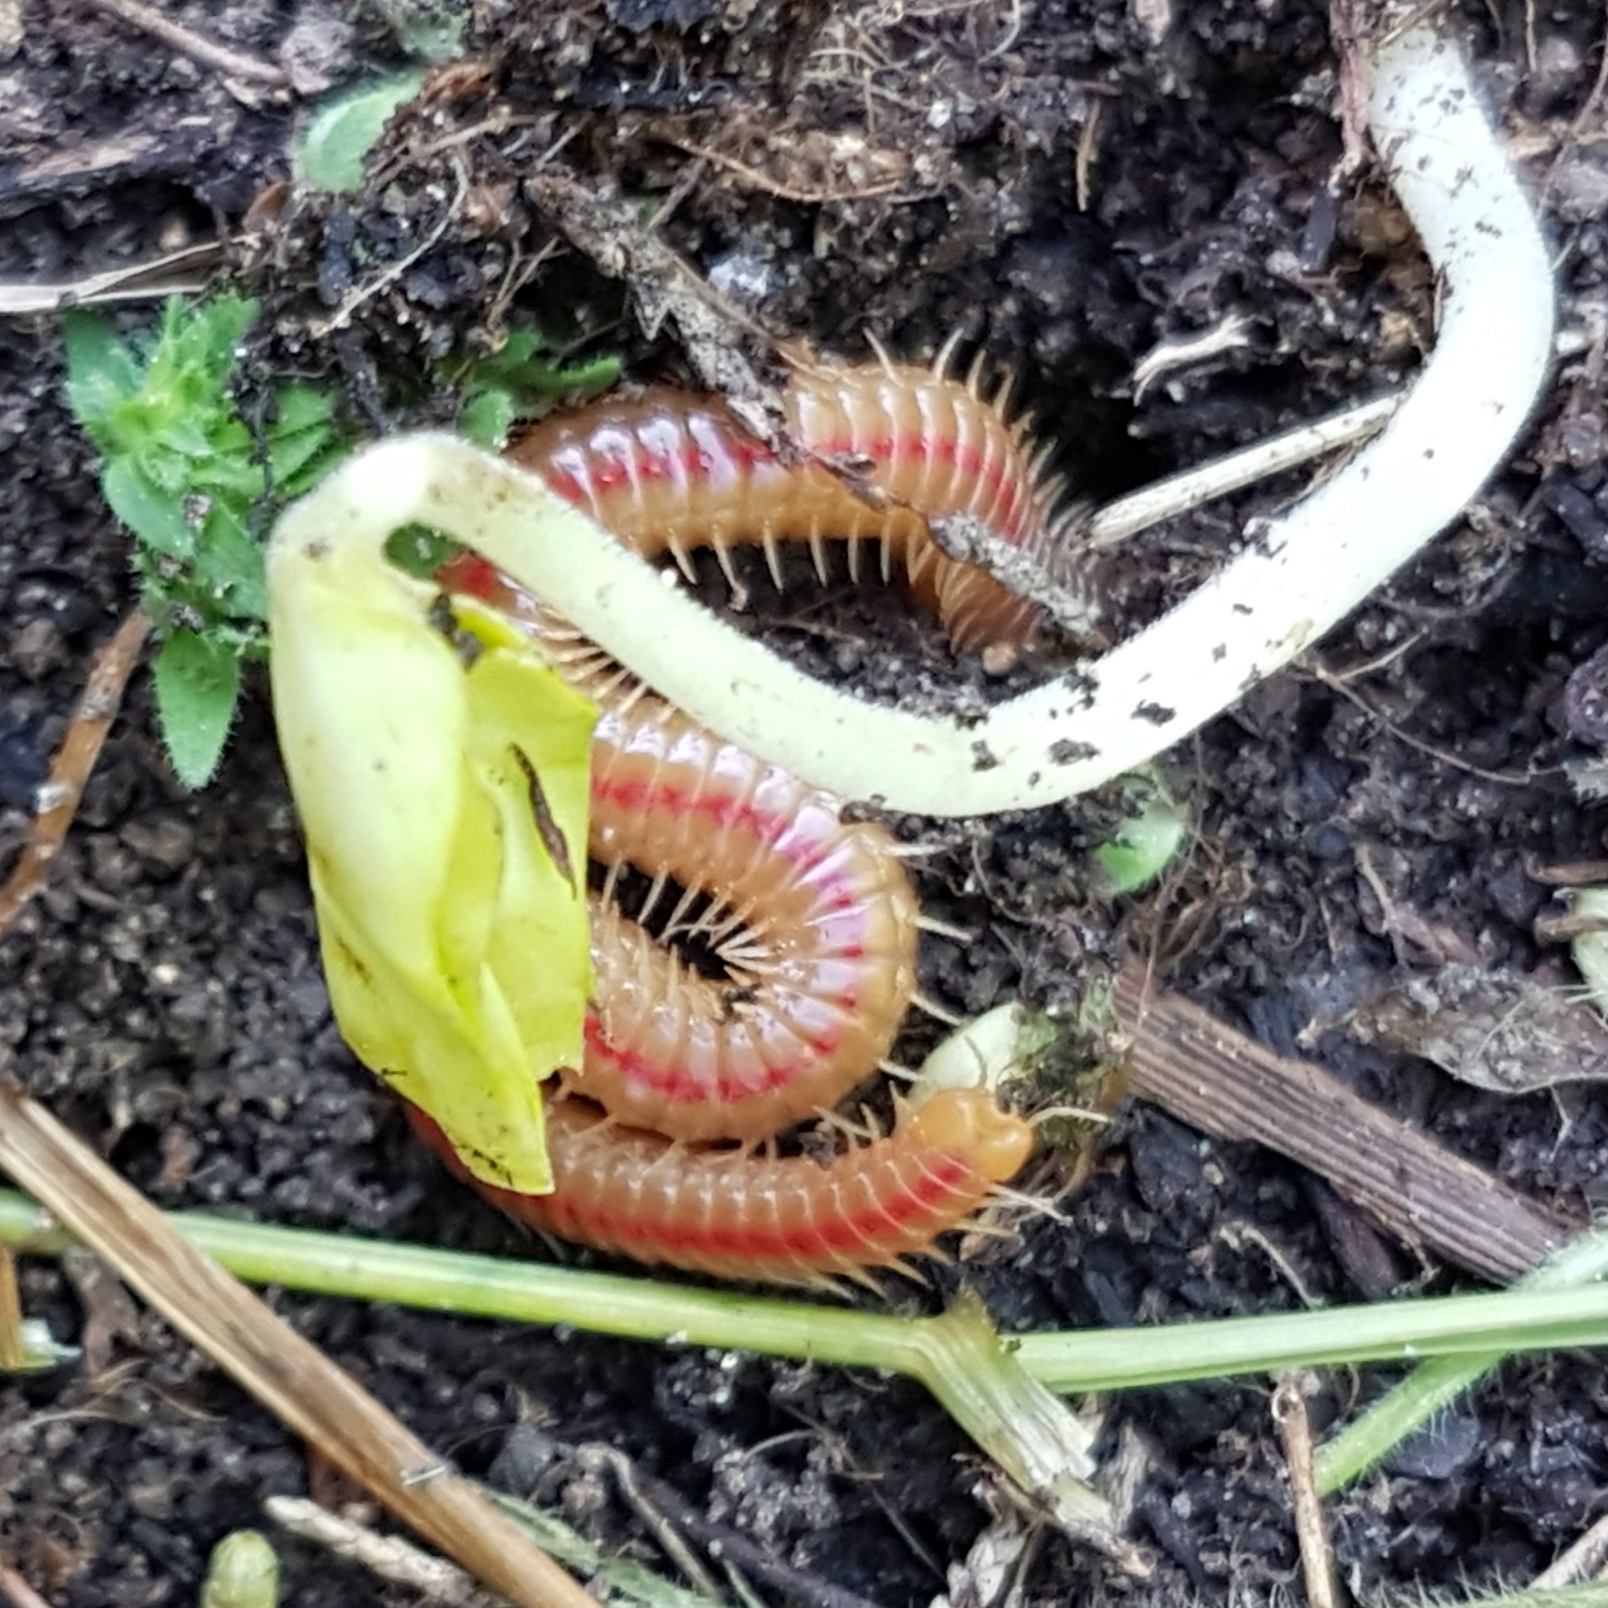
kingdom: Animalia
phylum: Arthropoda
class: Chilopoda
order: Geophilomorpha
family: Himantariidae
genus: Himantarium
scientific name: Himantarium gabrielis
